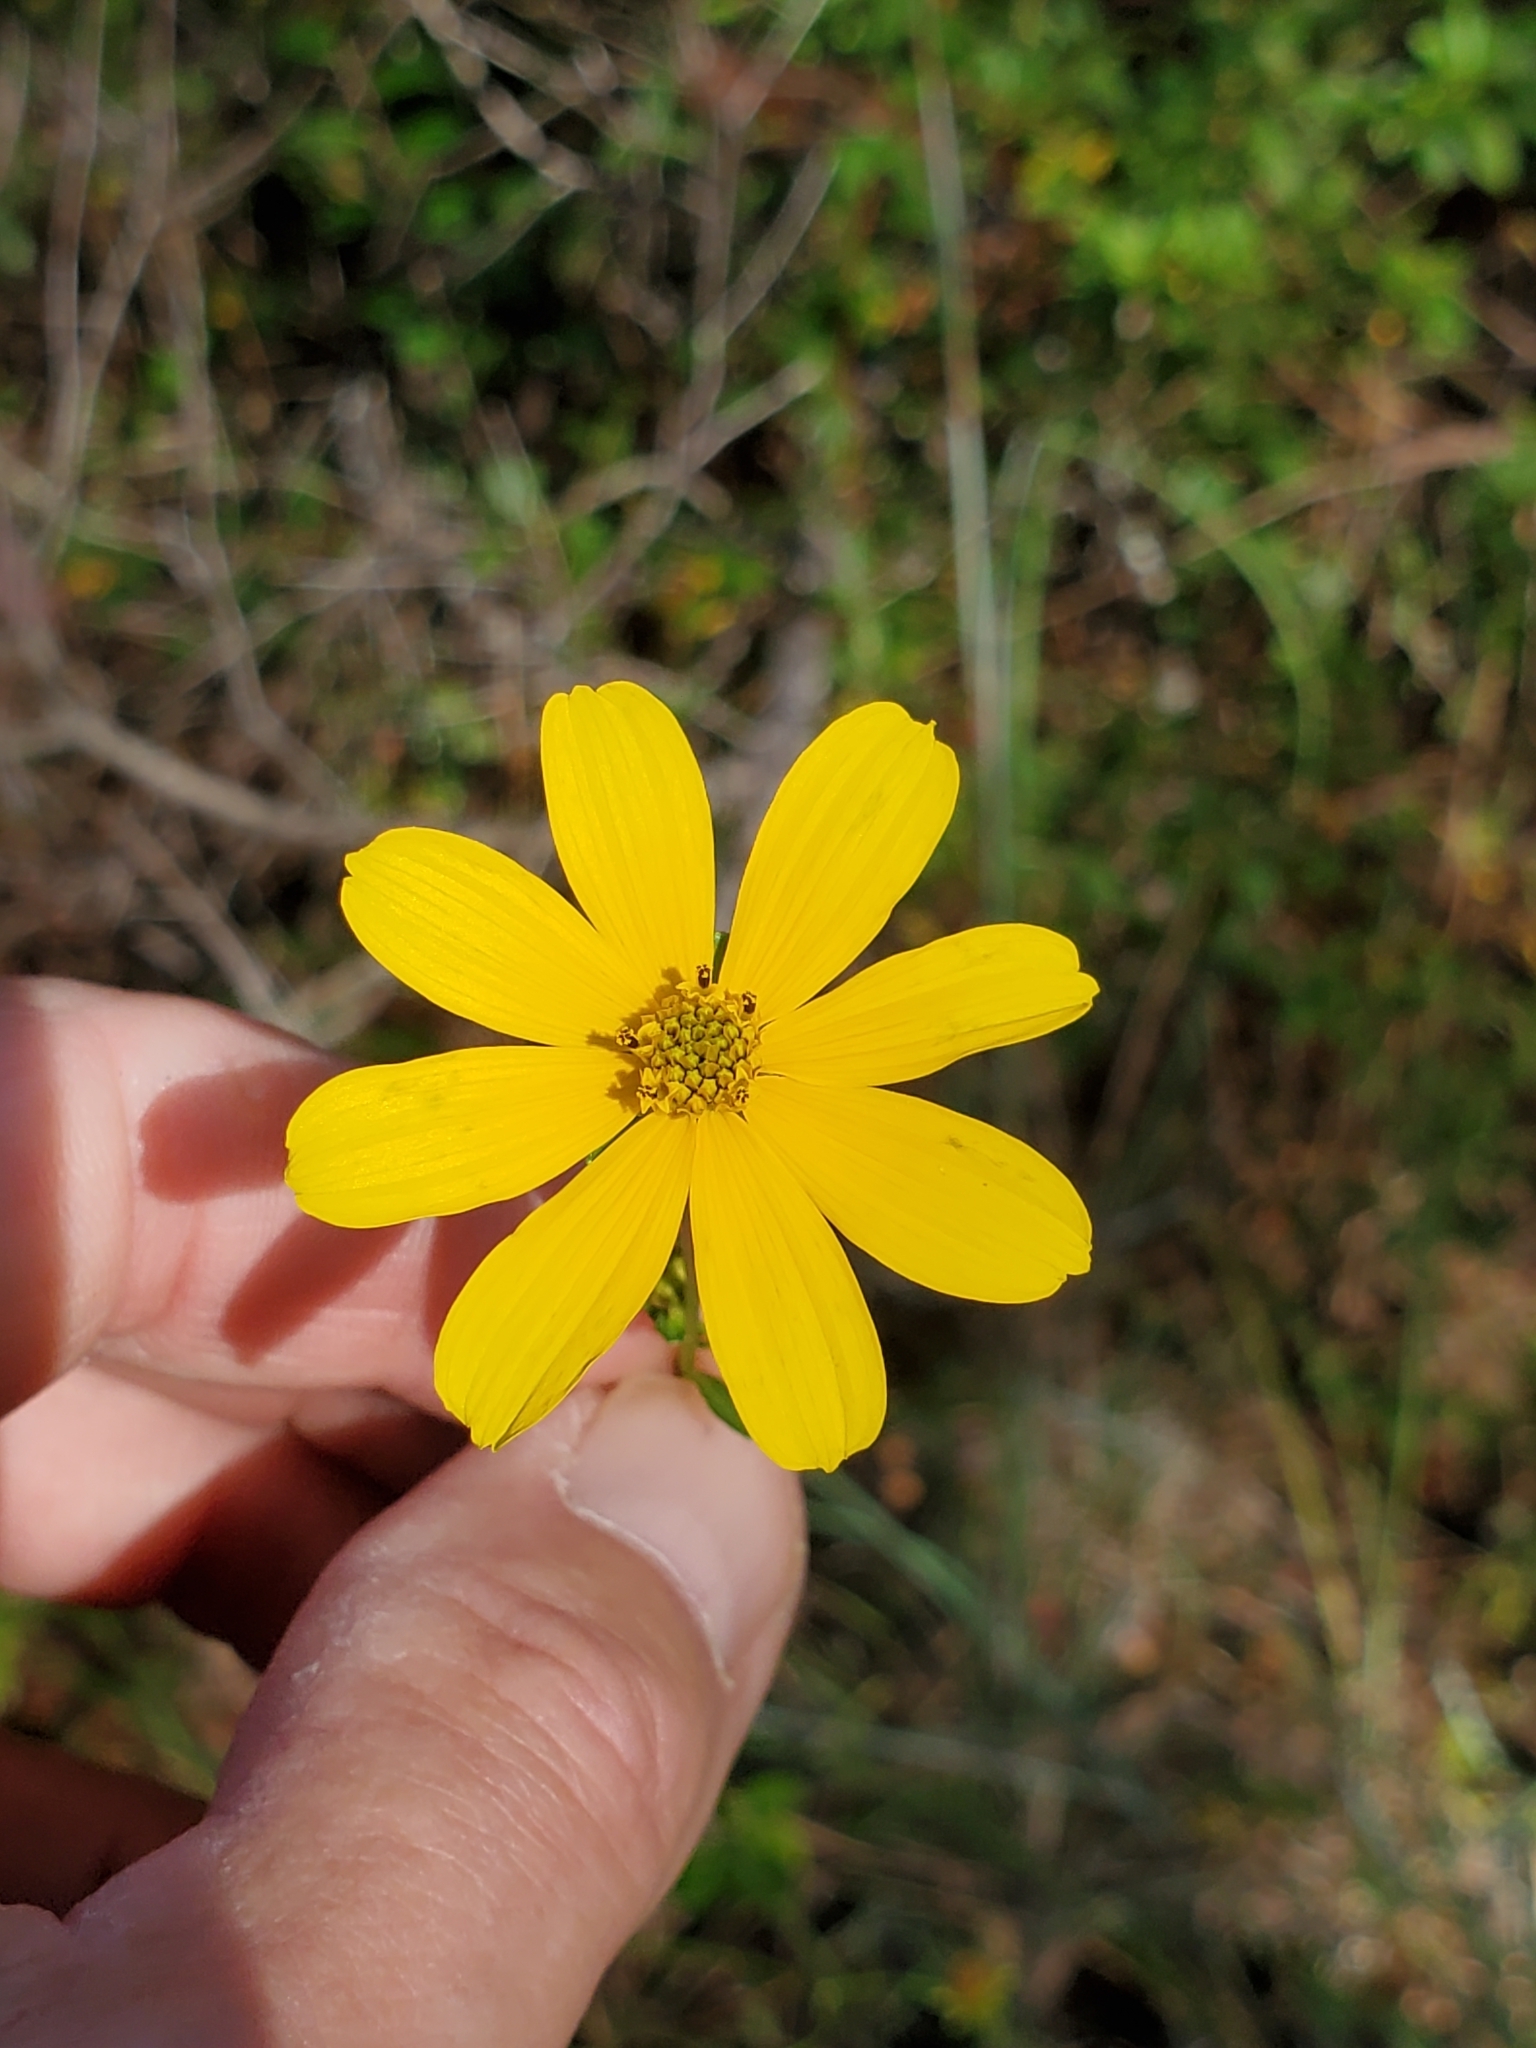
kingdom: Plantae
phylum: Tracheophyta
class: Magnoliopsida
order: Asterales
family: Asteraceae
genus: Bidens
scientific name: Bidens mitis
